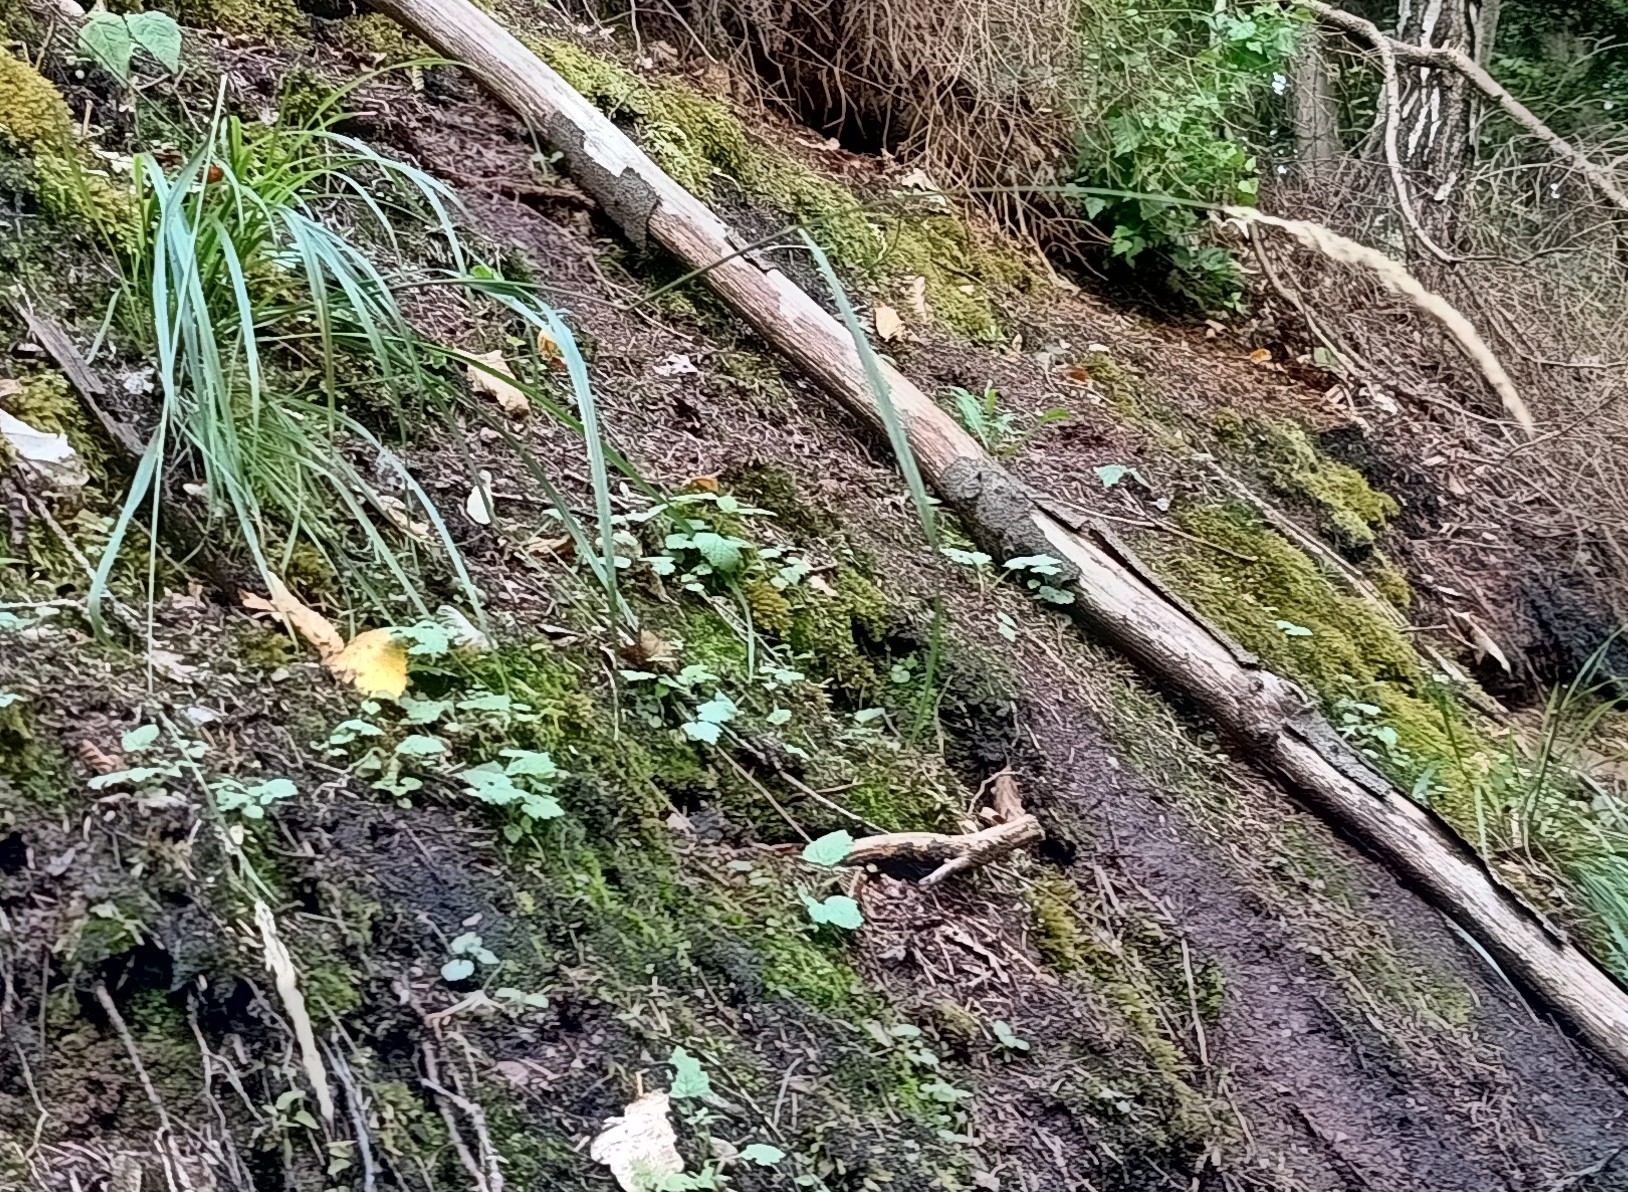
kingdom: Plantae
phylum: Tracheophyta
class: Liliopsida
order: Poales
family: Poaceae
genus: Calamagrostis
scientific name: Calamagrostis arundinacea
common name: Metskastik
